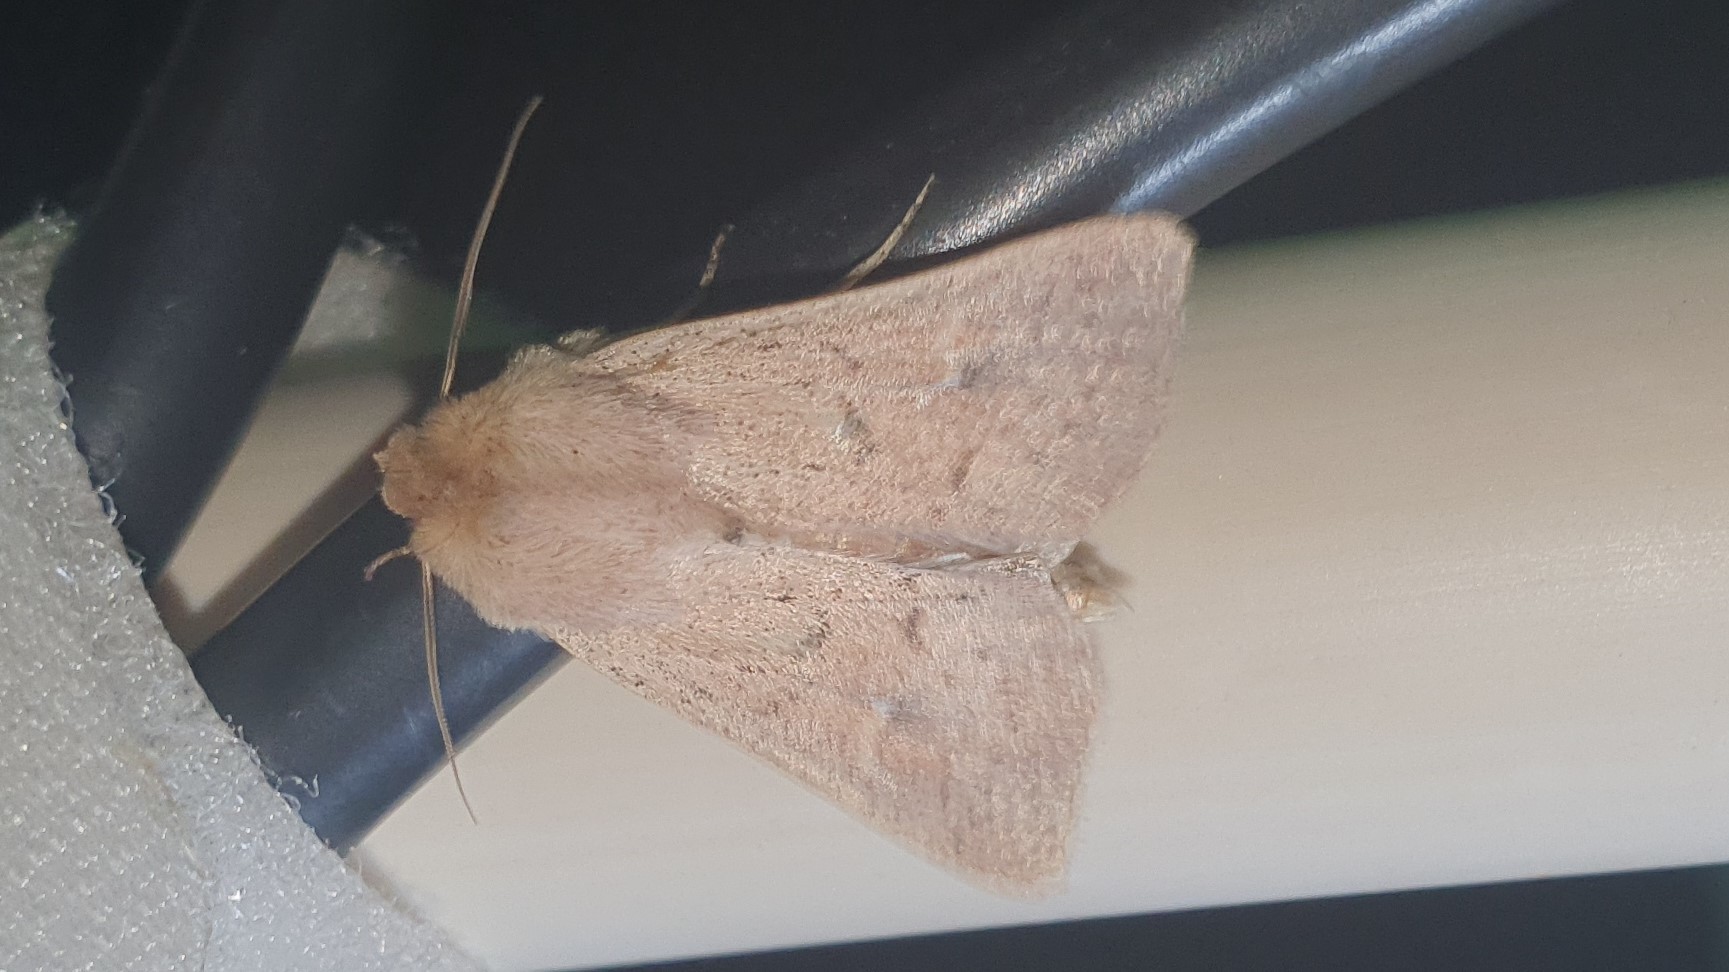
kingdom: Animalia
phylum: Arthropoda
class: Insecta
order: Lepidoptera
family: Noctuidae
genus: Mythimna
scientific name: Mythimna ferrago
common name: Clay
